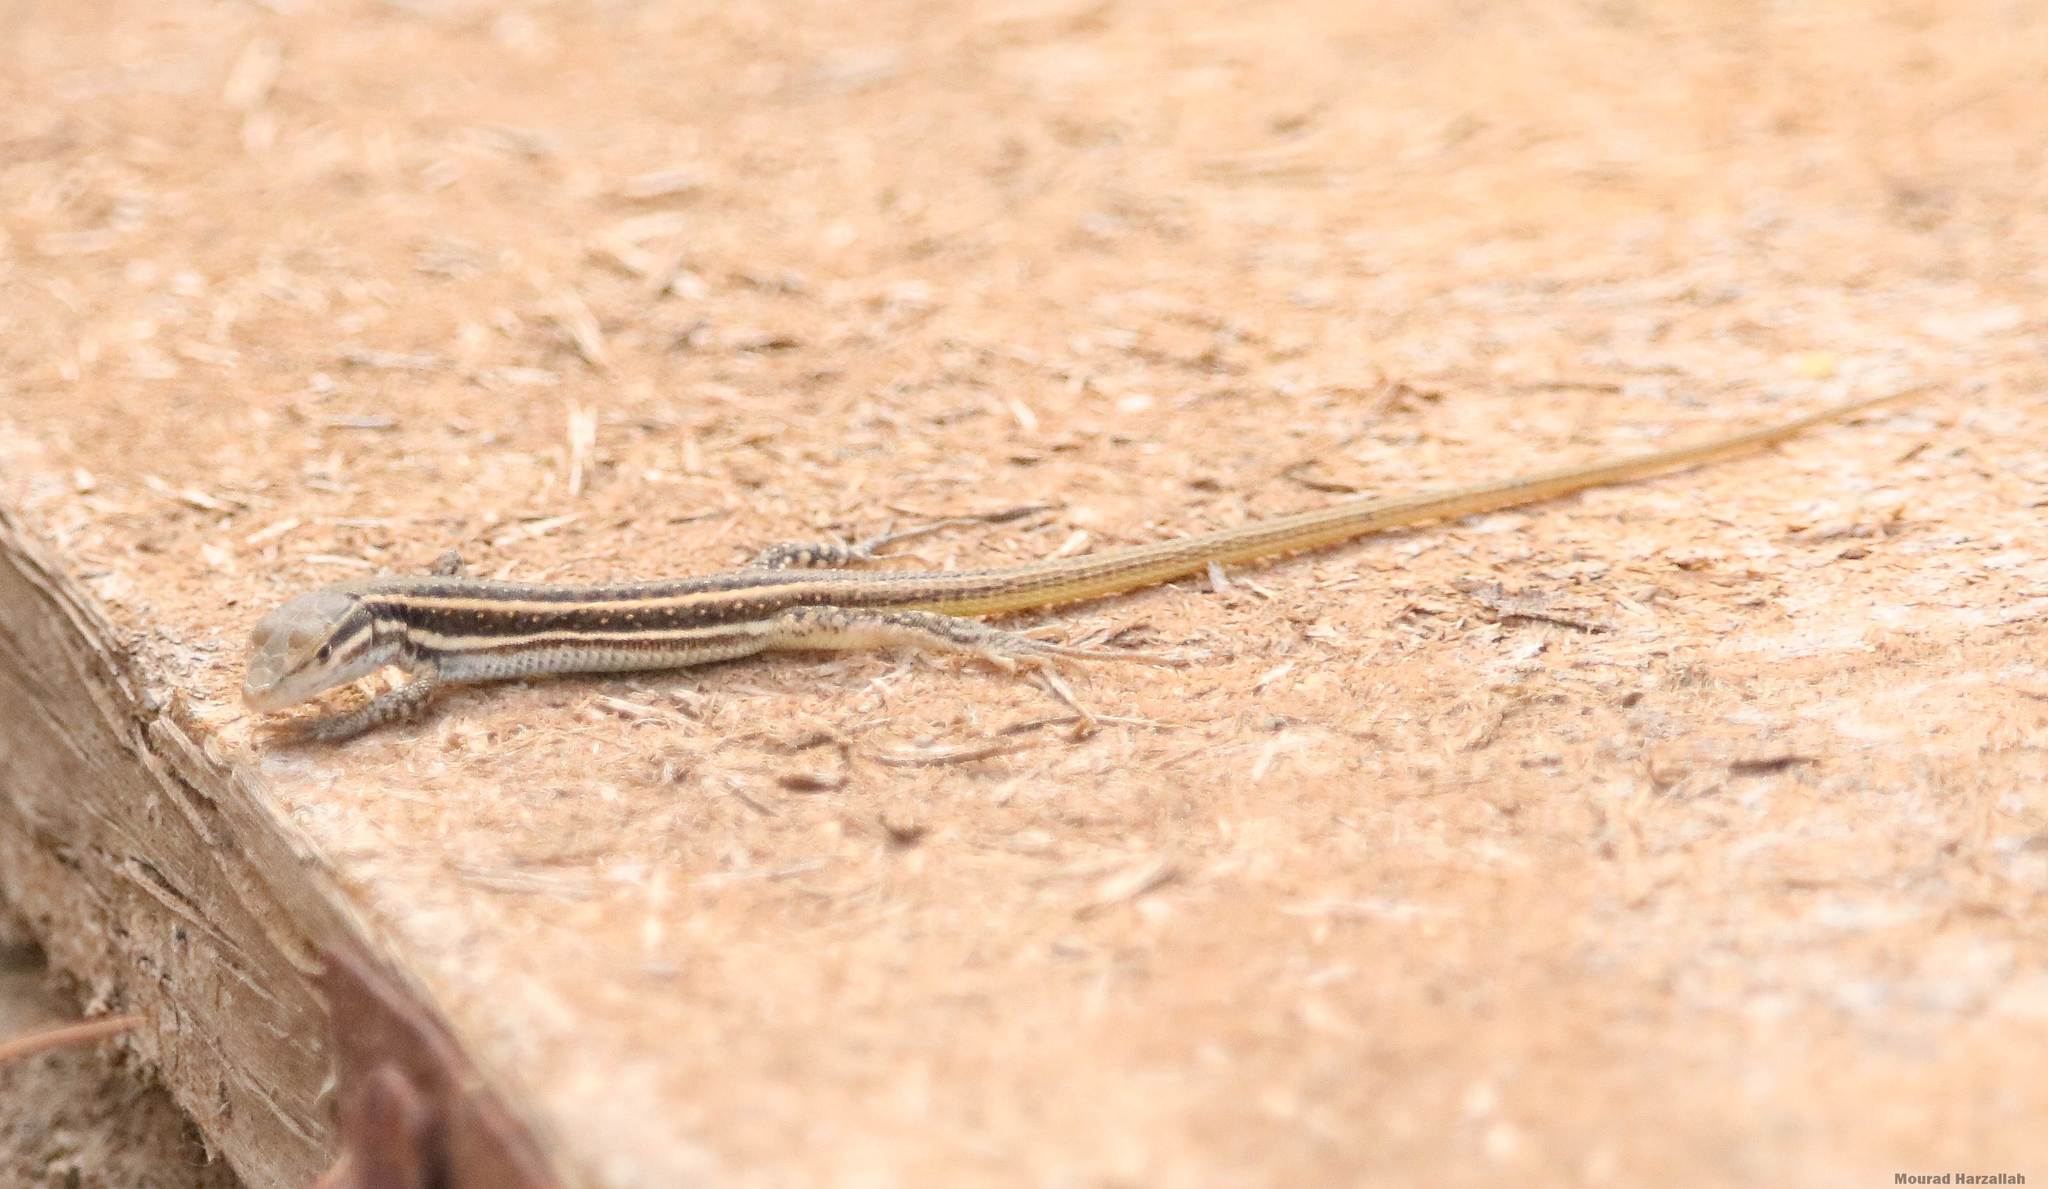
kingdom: Animalia
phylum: Chordata
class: Squamata
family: Lacertidae
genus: Mesalina
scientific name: Mesalina olivieri
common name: Oliver's desert racer
